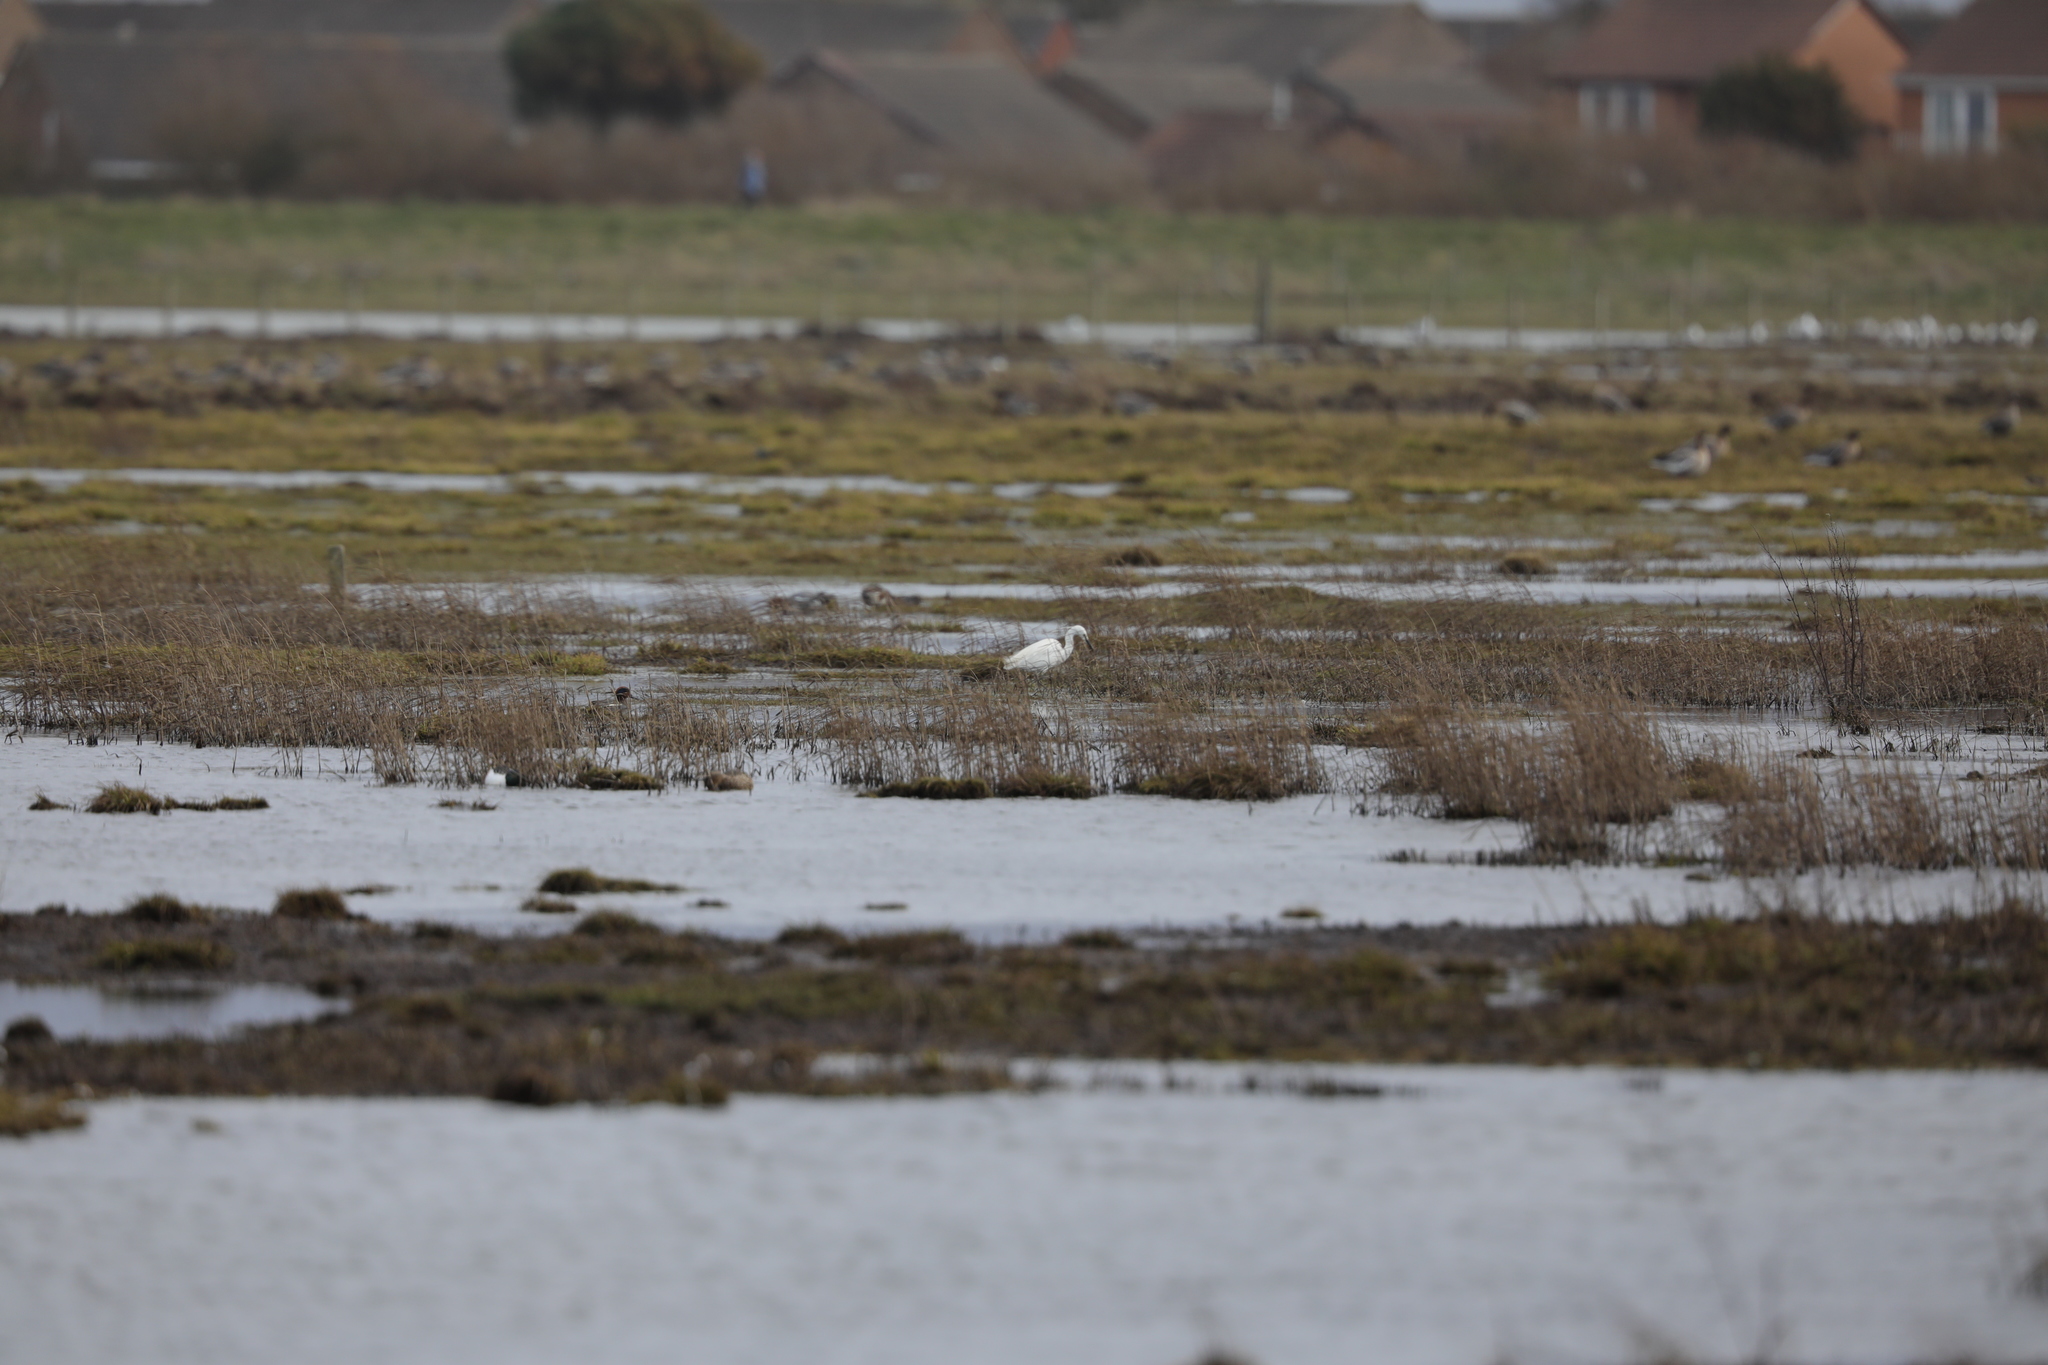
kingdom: Animalia
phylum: Chordata
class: Aves
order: Pelecaniformes
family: Ardeidae
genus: Egretta
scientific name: Egretta garzetta
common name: Little egret
